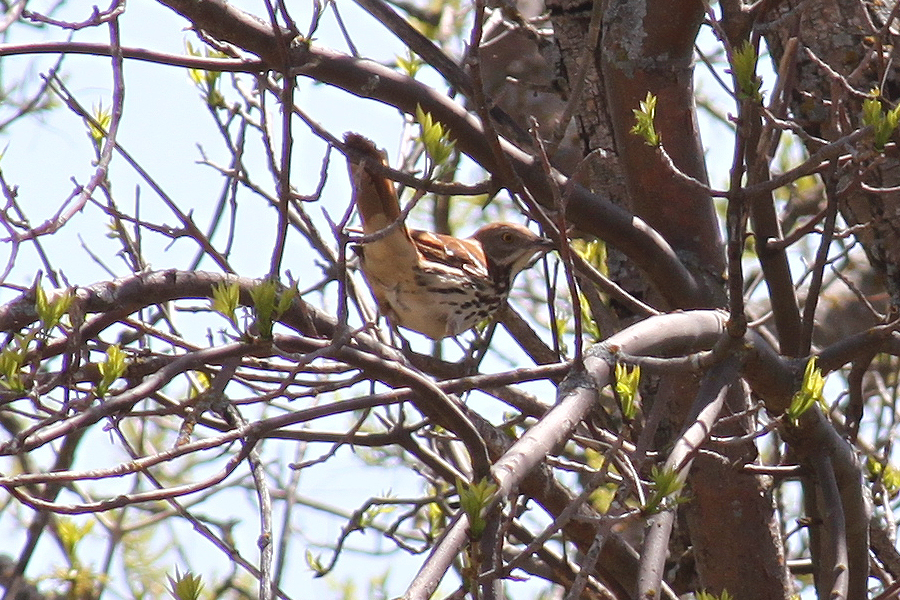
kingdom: Animalia
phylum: Chordata
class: Aves
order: Passeriformes
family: Mimidae
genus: Toxostoma
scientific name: Toxostoma rufum
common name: Brown thrasher
